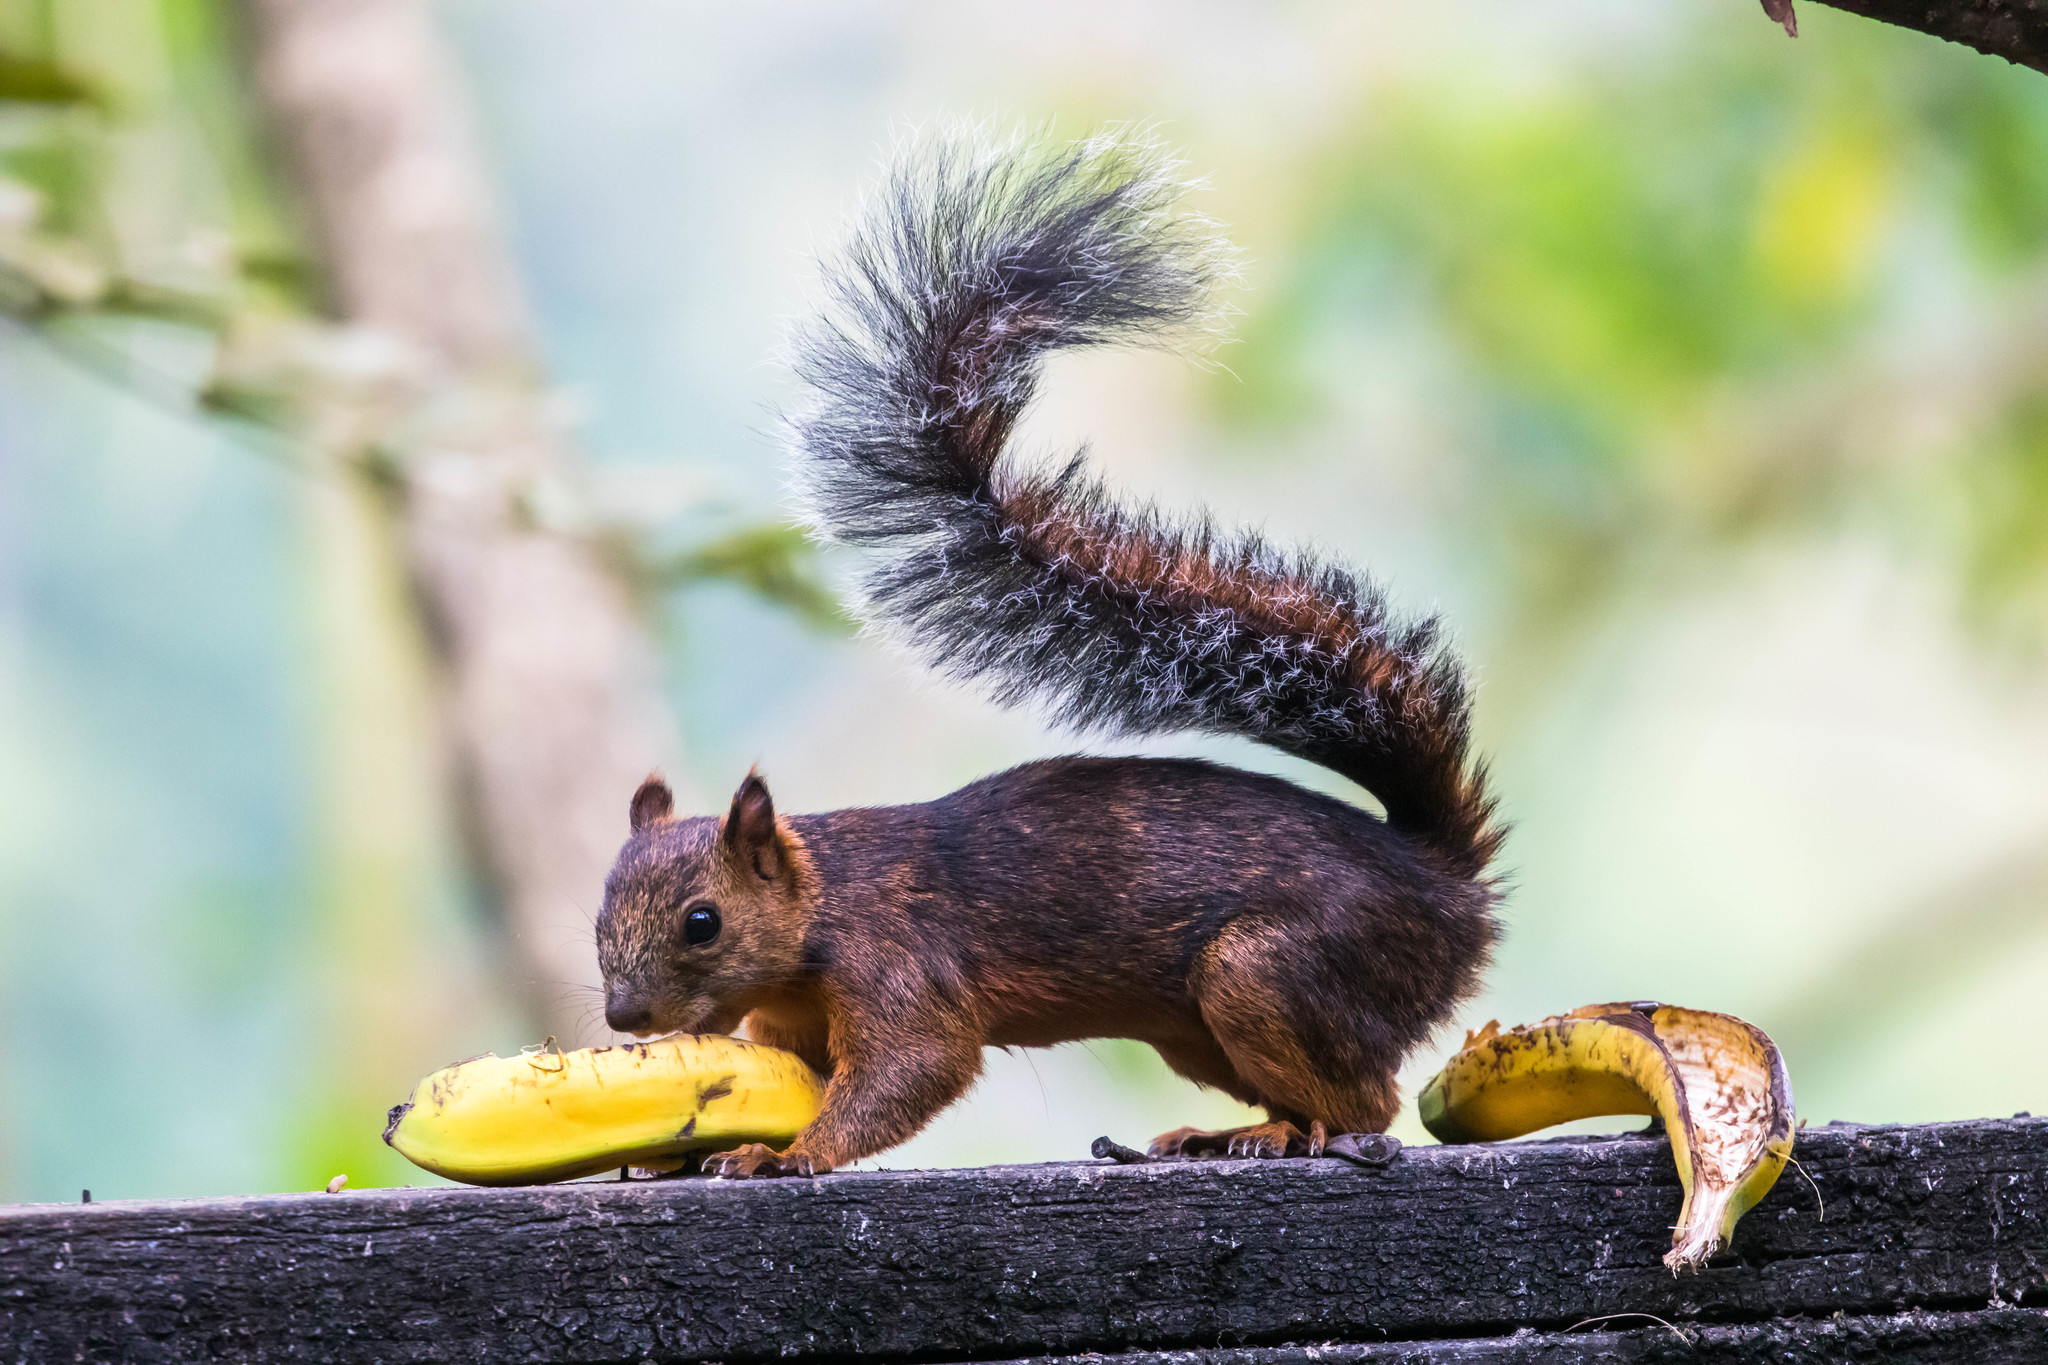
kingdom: Animalia
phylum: Chordata
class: Mammalia
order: Rodentia
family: Sciuridae
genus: Sciurus
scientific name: Sciurus variegatoides
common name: Variegated squirrel
